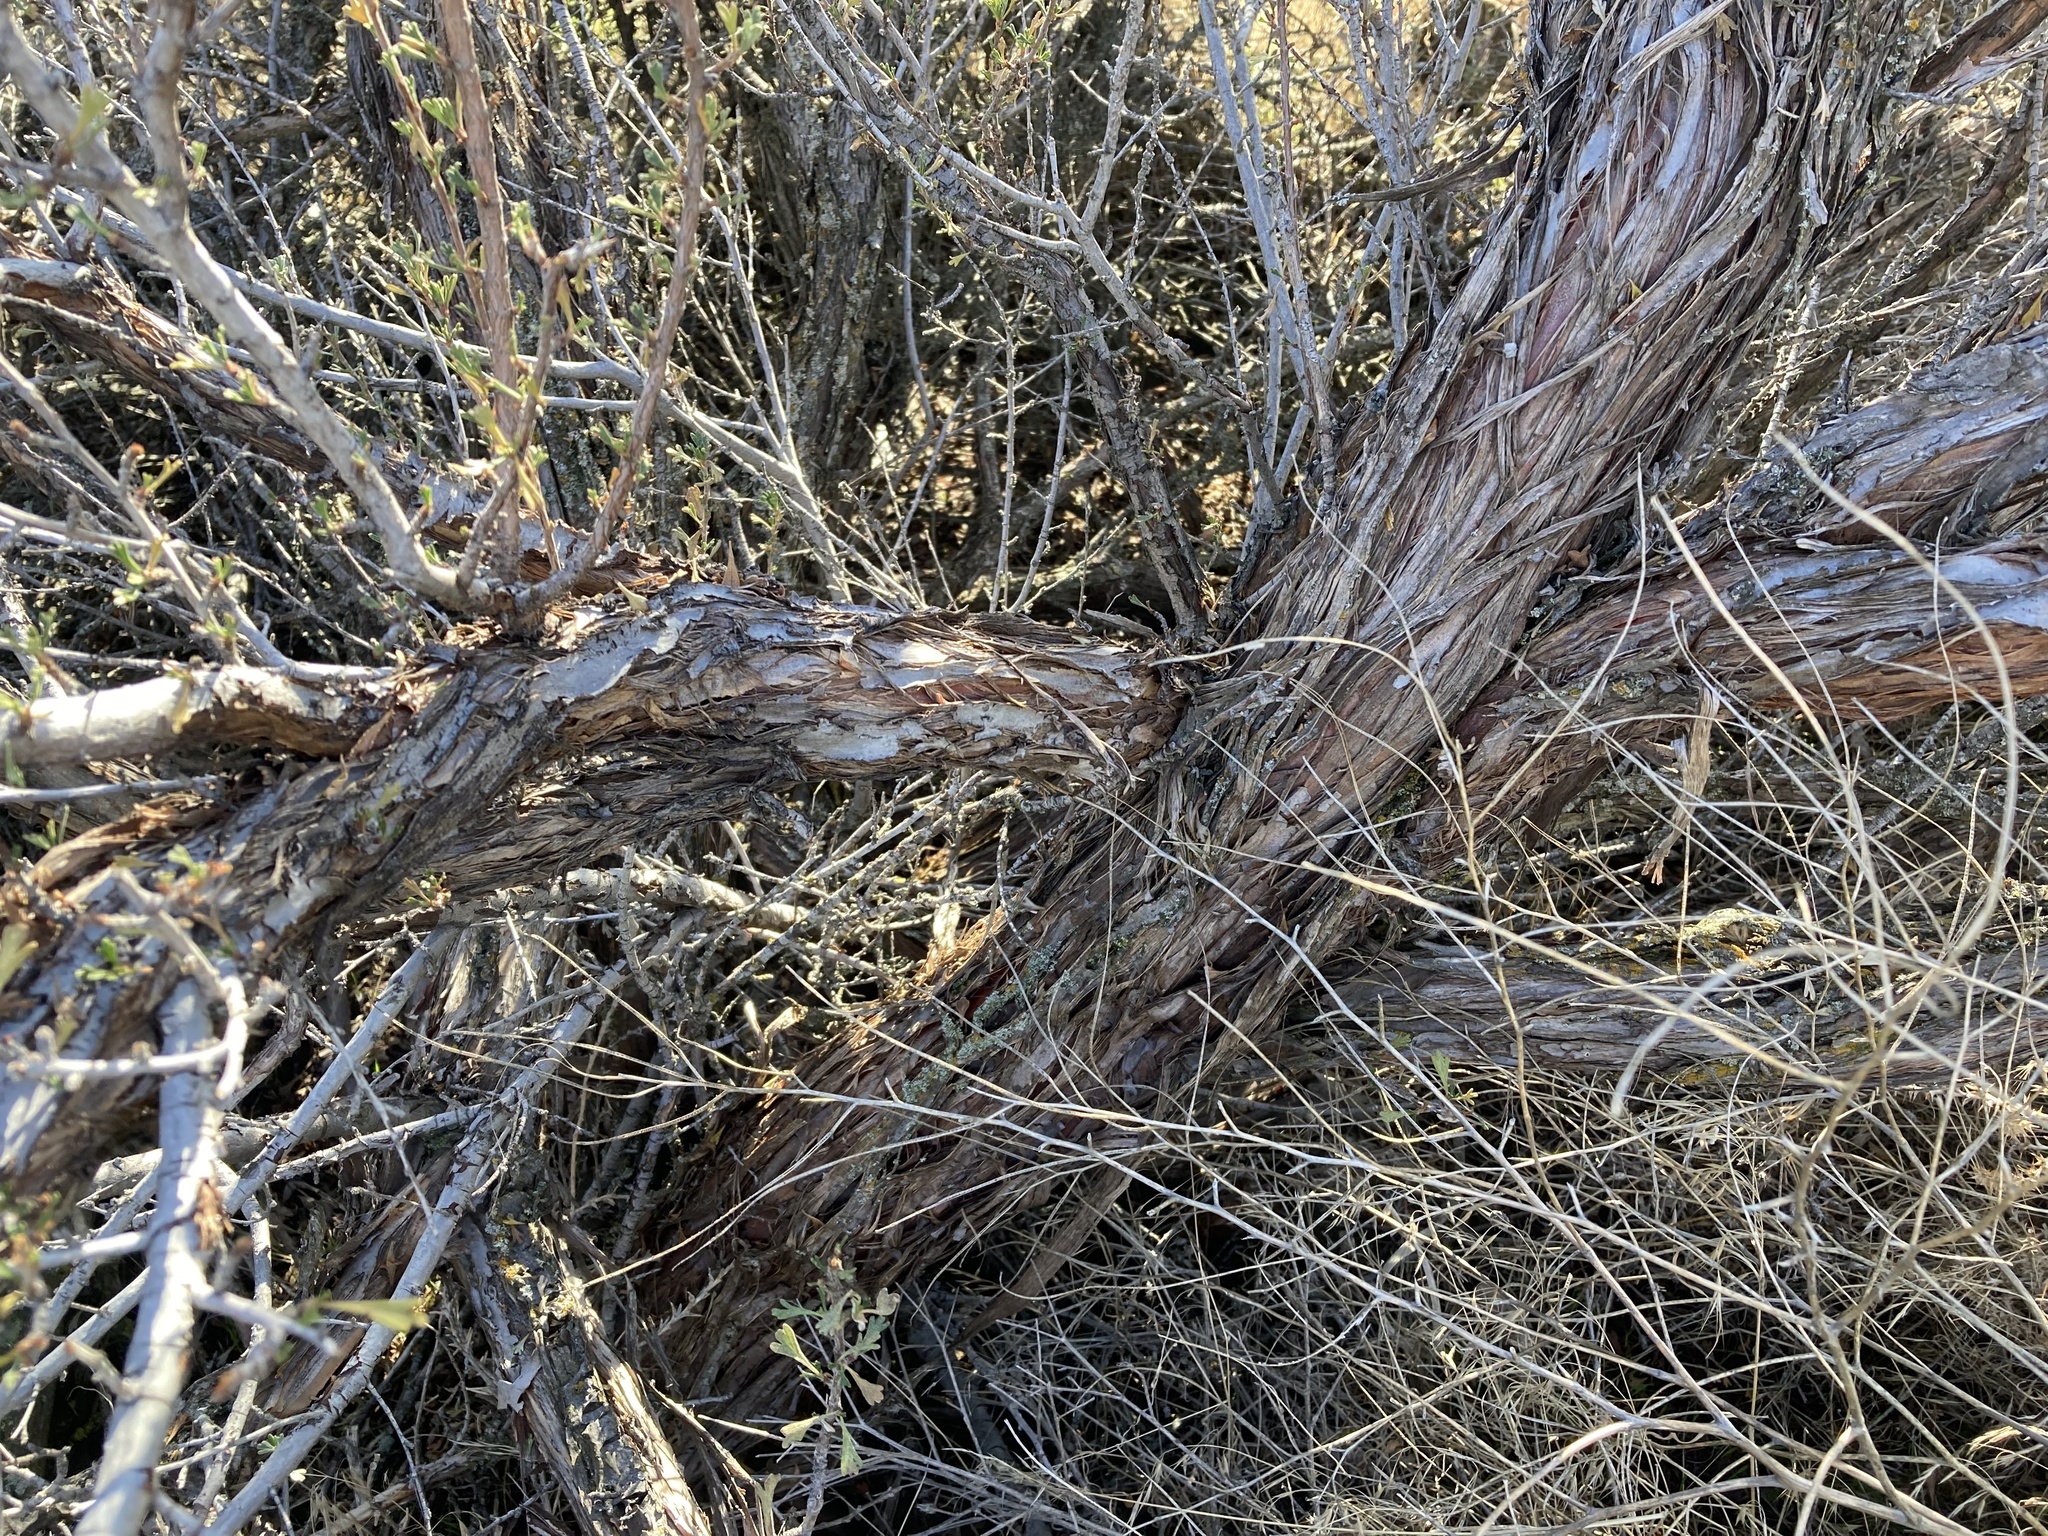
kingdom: Plantae
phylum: Tracheophyta
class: Magnoliopsida
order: Rosales
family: Rosaceae
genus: Purshia
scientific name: Purshia tridentata
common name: Antelope bitterbrush
